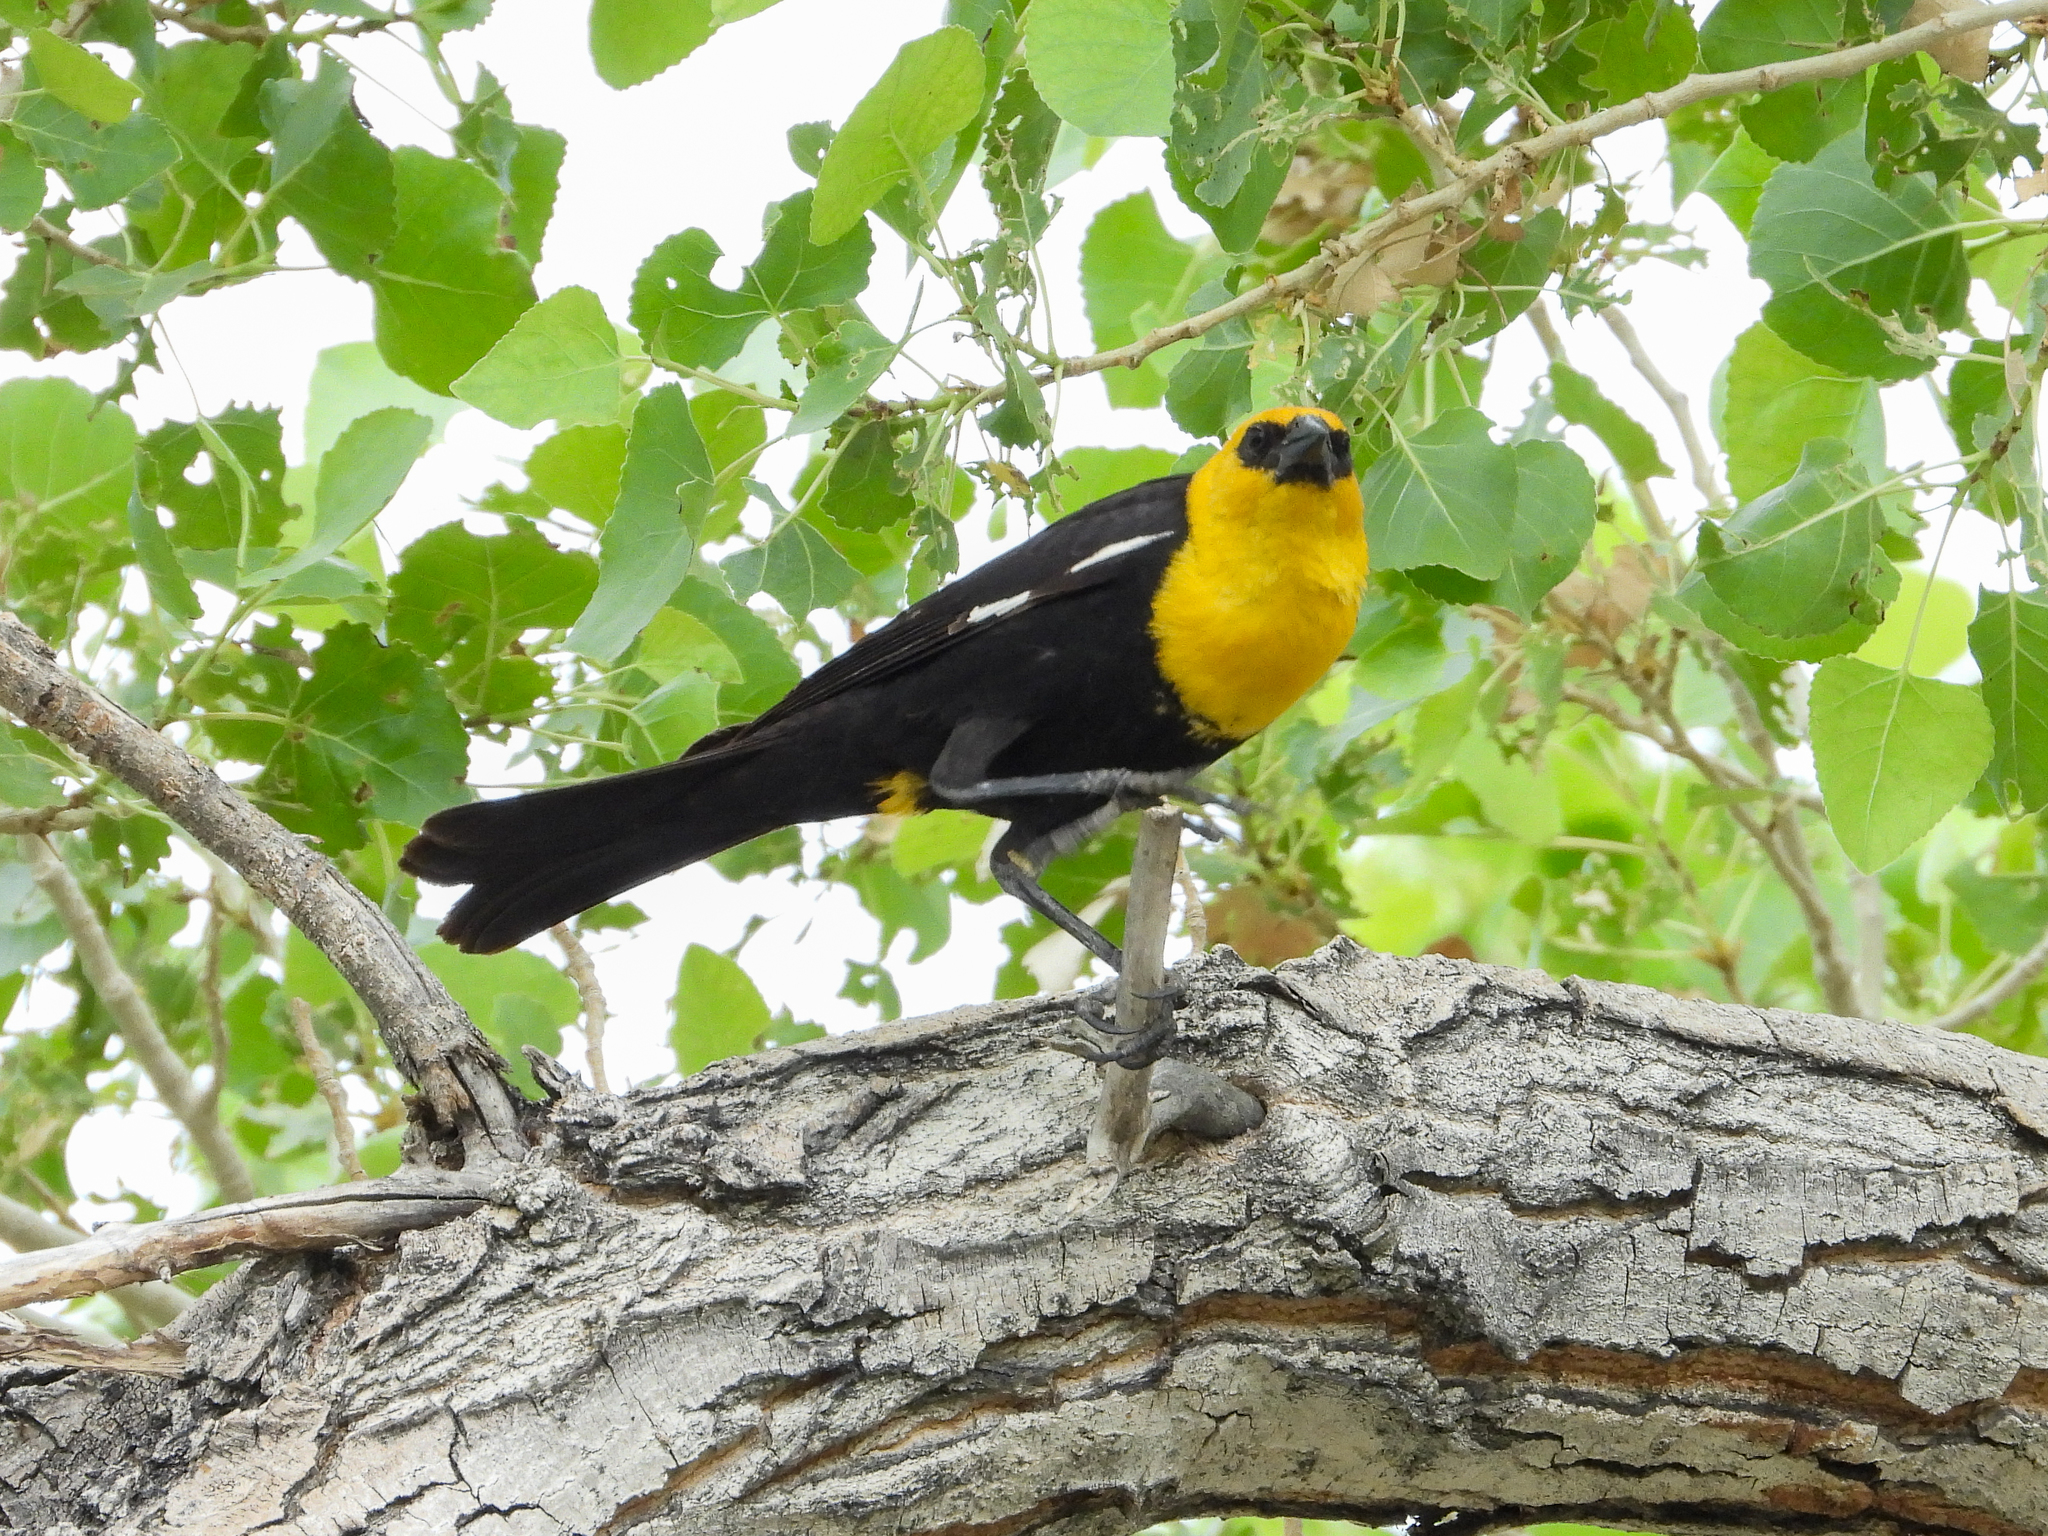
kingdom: Animalia
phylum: Chordata
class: Aves
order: Passeriformes
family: Icteridae
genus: Xanthocephalus
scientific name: Xanthocephalus xanthocephalus
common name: Yellow-headed blackbird
